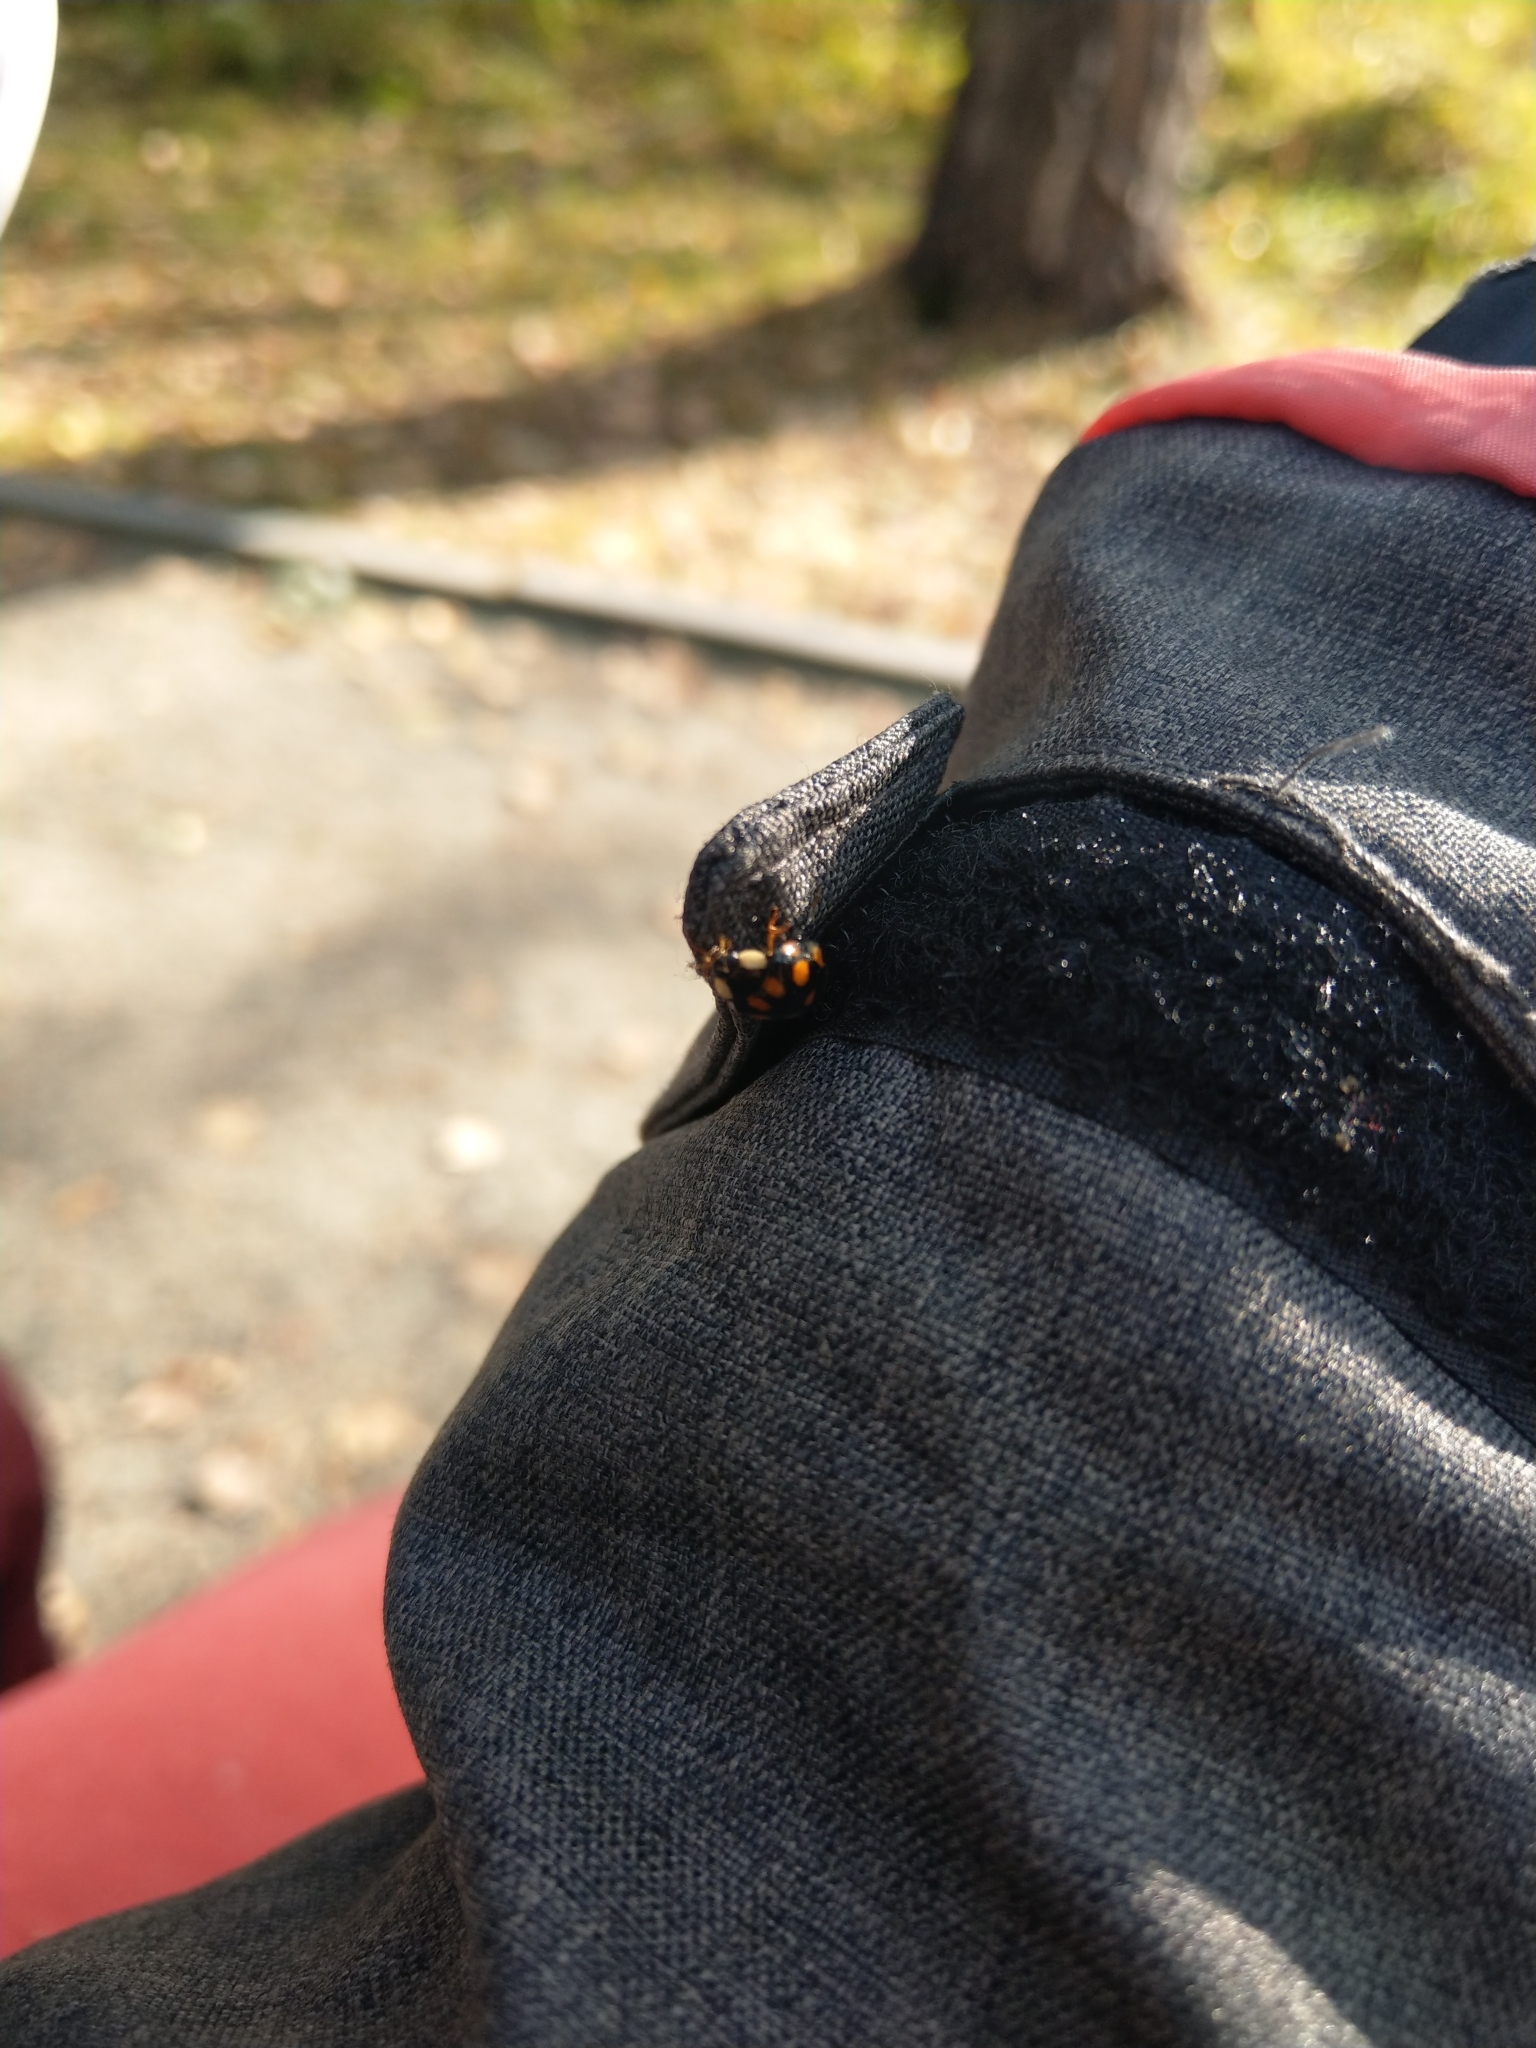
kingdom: Animalia
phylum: Arthropoda
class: Insecta
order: Coleoptera
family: Coccinellidae
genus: Harmonia
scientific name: Harmonia axyridis
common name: Harlequin ladybird
